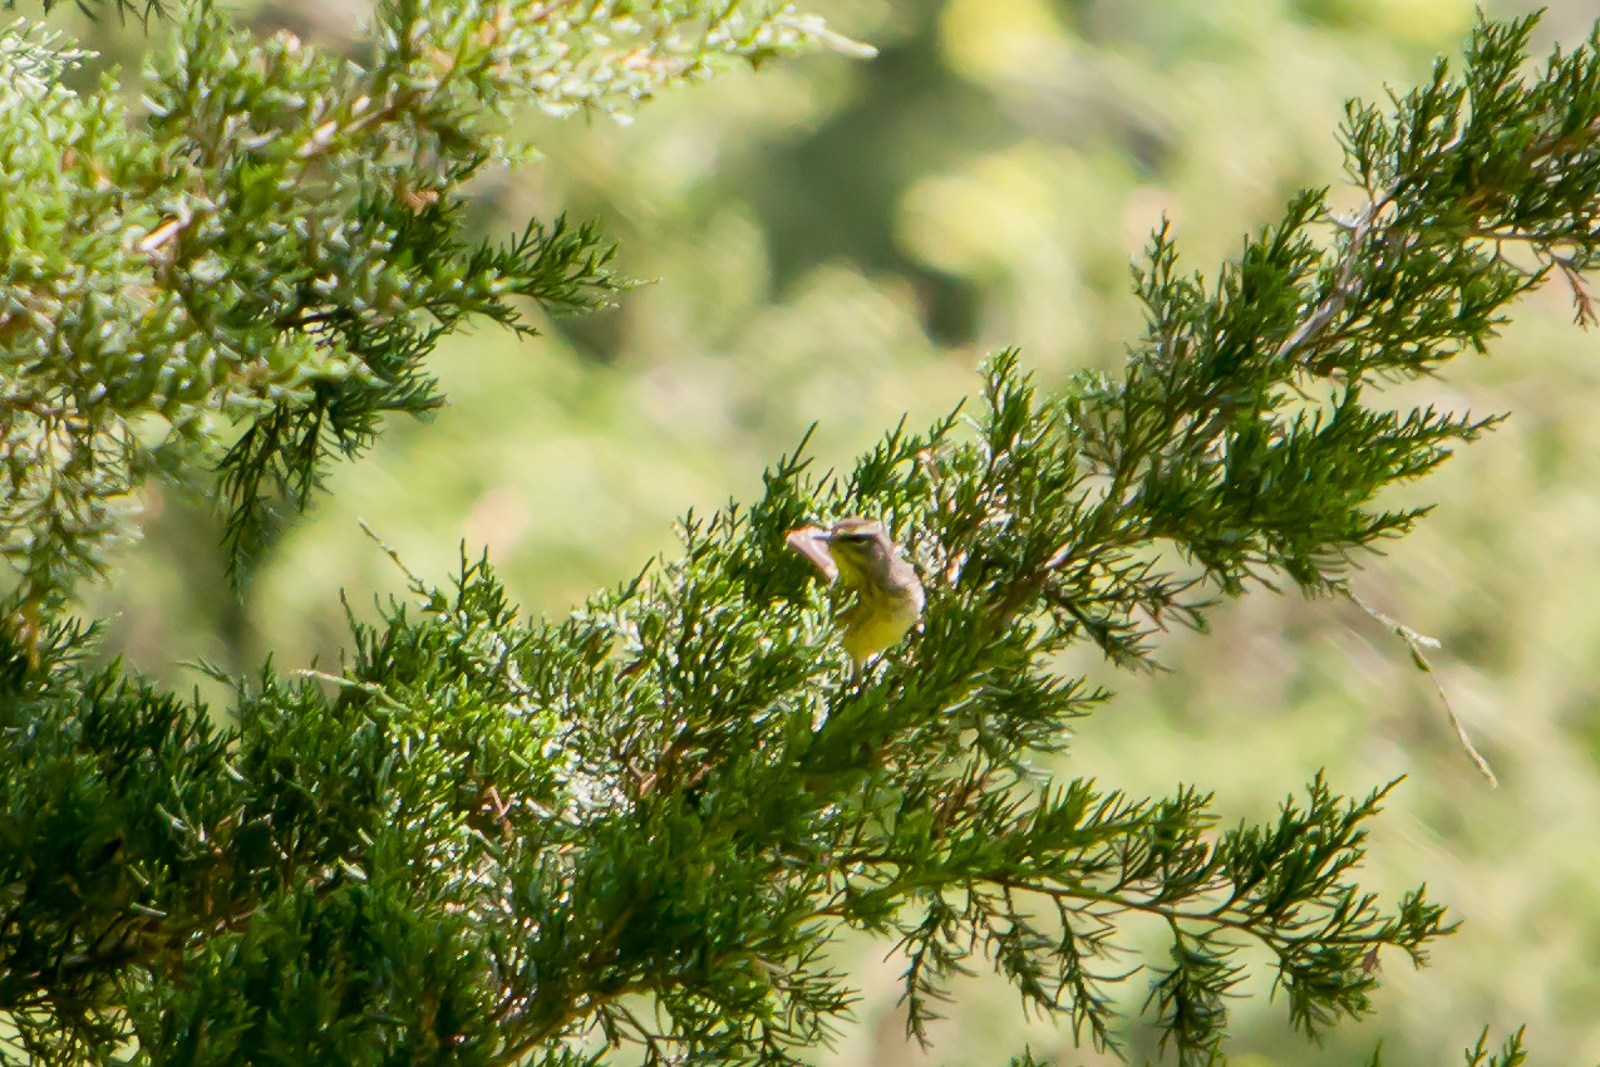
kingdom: Animalia
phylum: Chordata
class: Aves
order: Passeriformes
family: Parulidae
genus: Setophaga
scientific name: Setophaga palmarum
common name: Palm warbler
